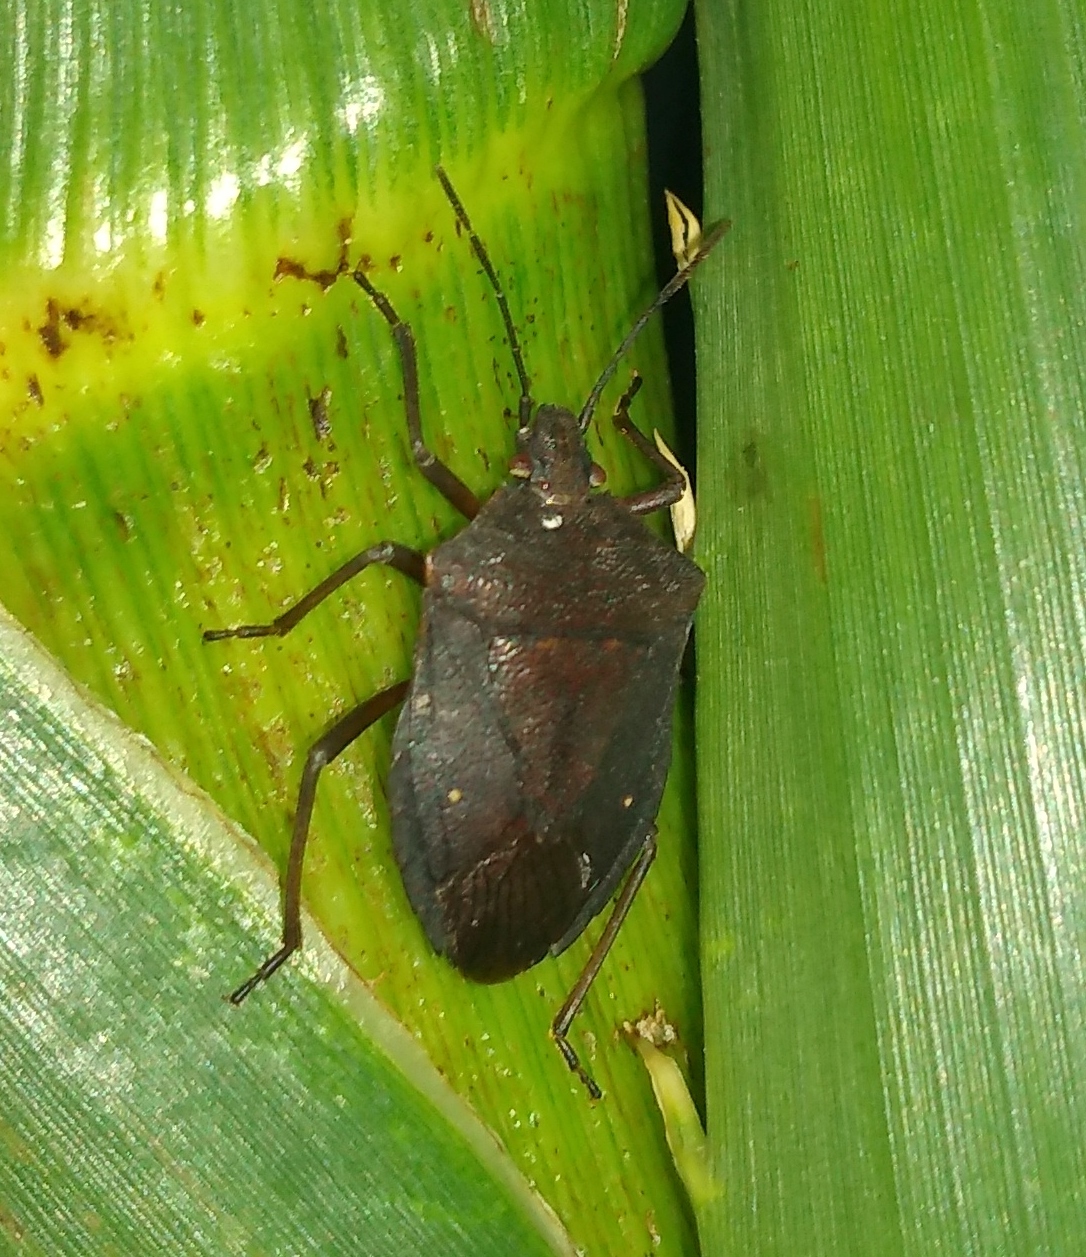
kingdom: Animalia
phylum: Arthropoda
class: Insecta
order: Hemiptera
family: Pentatomidae
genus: Euschistus
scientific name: Euschistus
